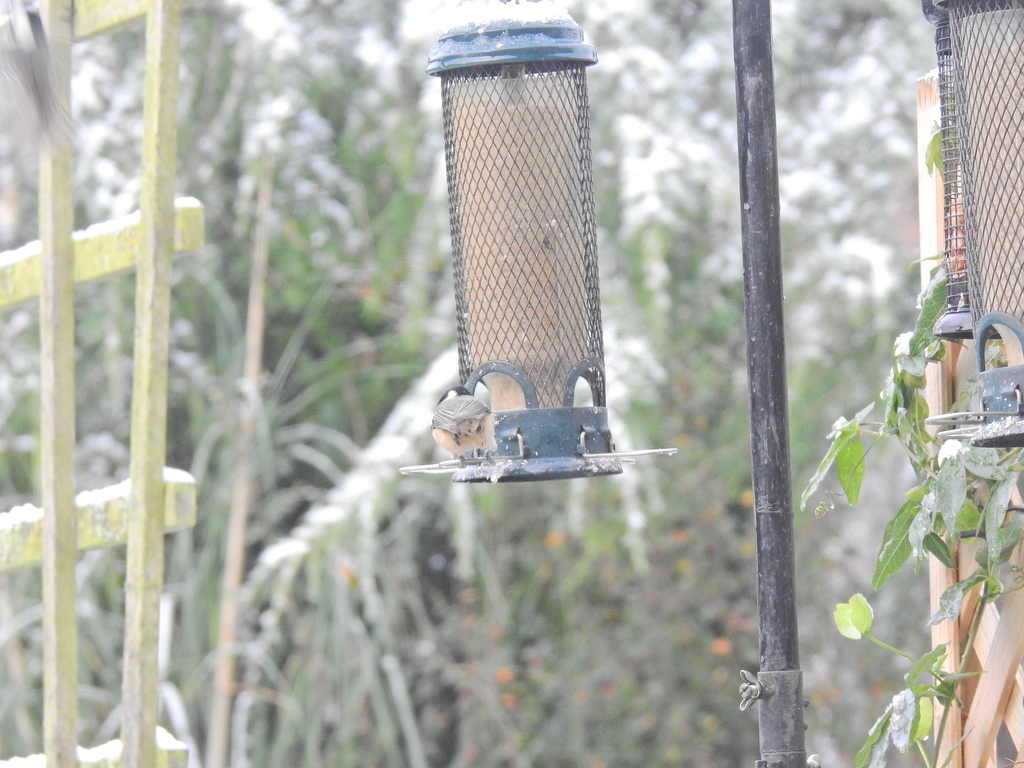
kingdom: Animalia
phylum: Chordata
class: Aves
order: Passeriformes
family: Paridae
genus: Periparus
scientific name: Periparus ater
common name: Coal tit
